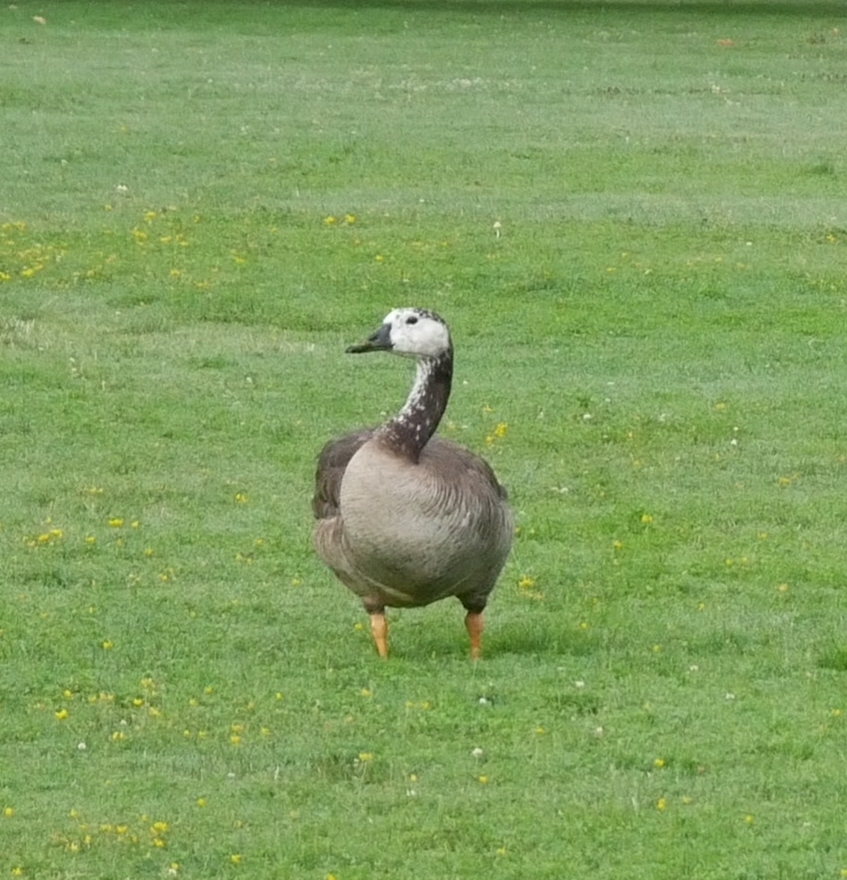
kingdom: Animalia
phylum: Chordata
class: Aves
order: Anseriformes
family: Anatidae
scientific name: Anatidae
